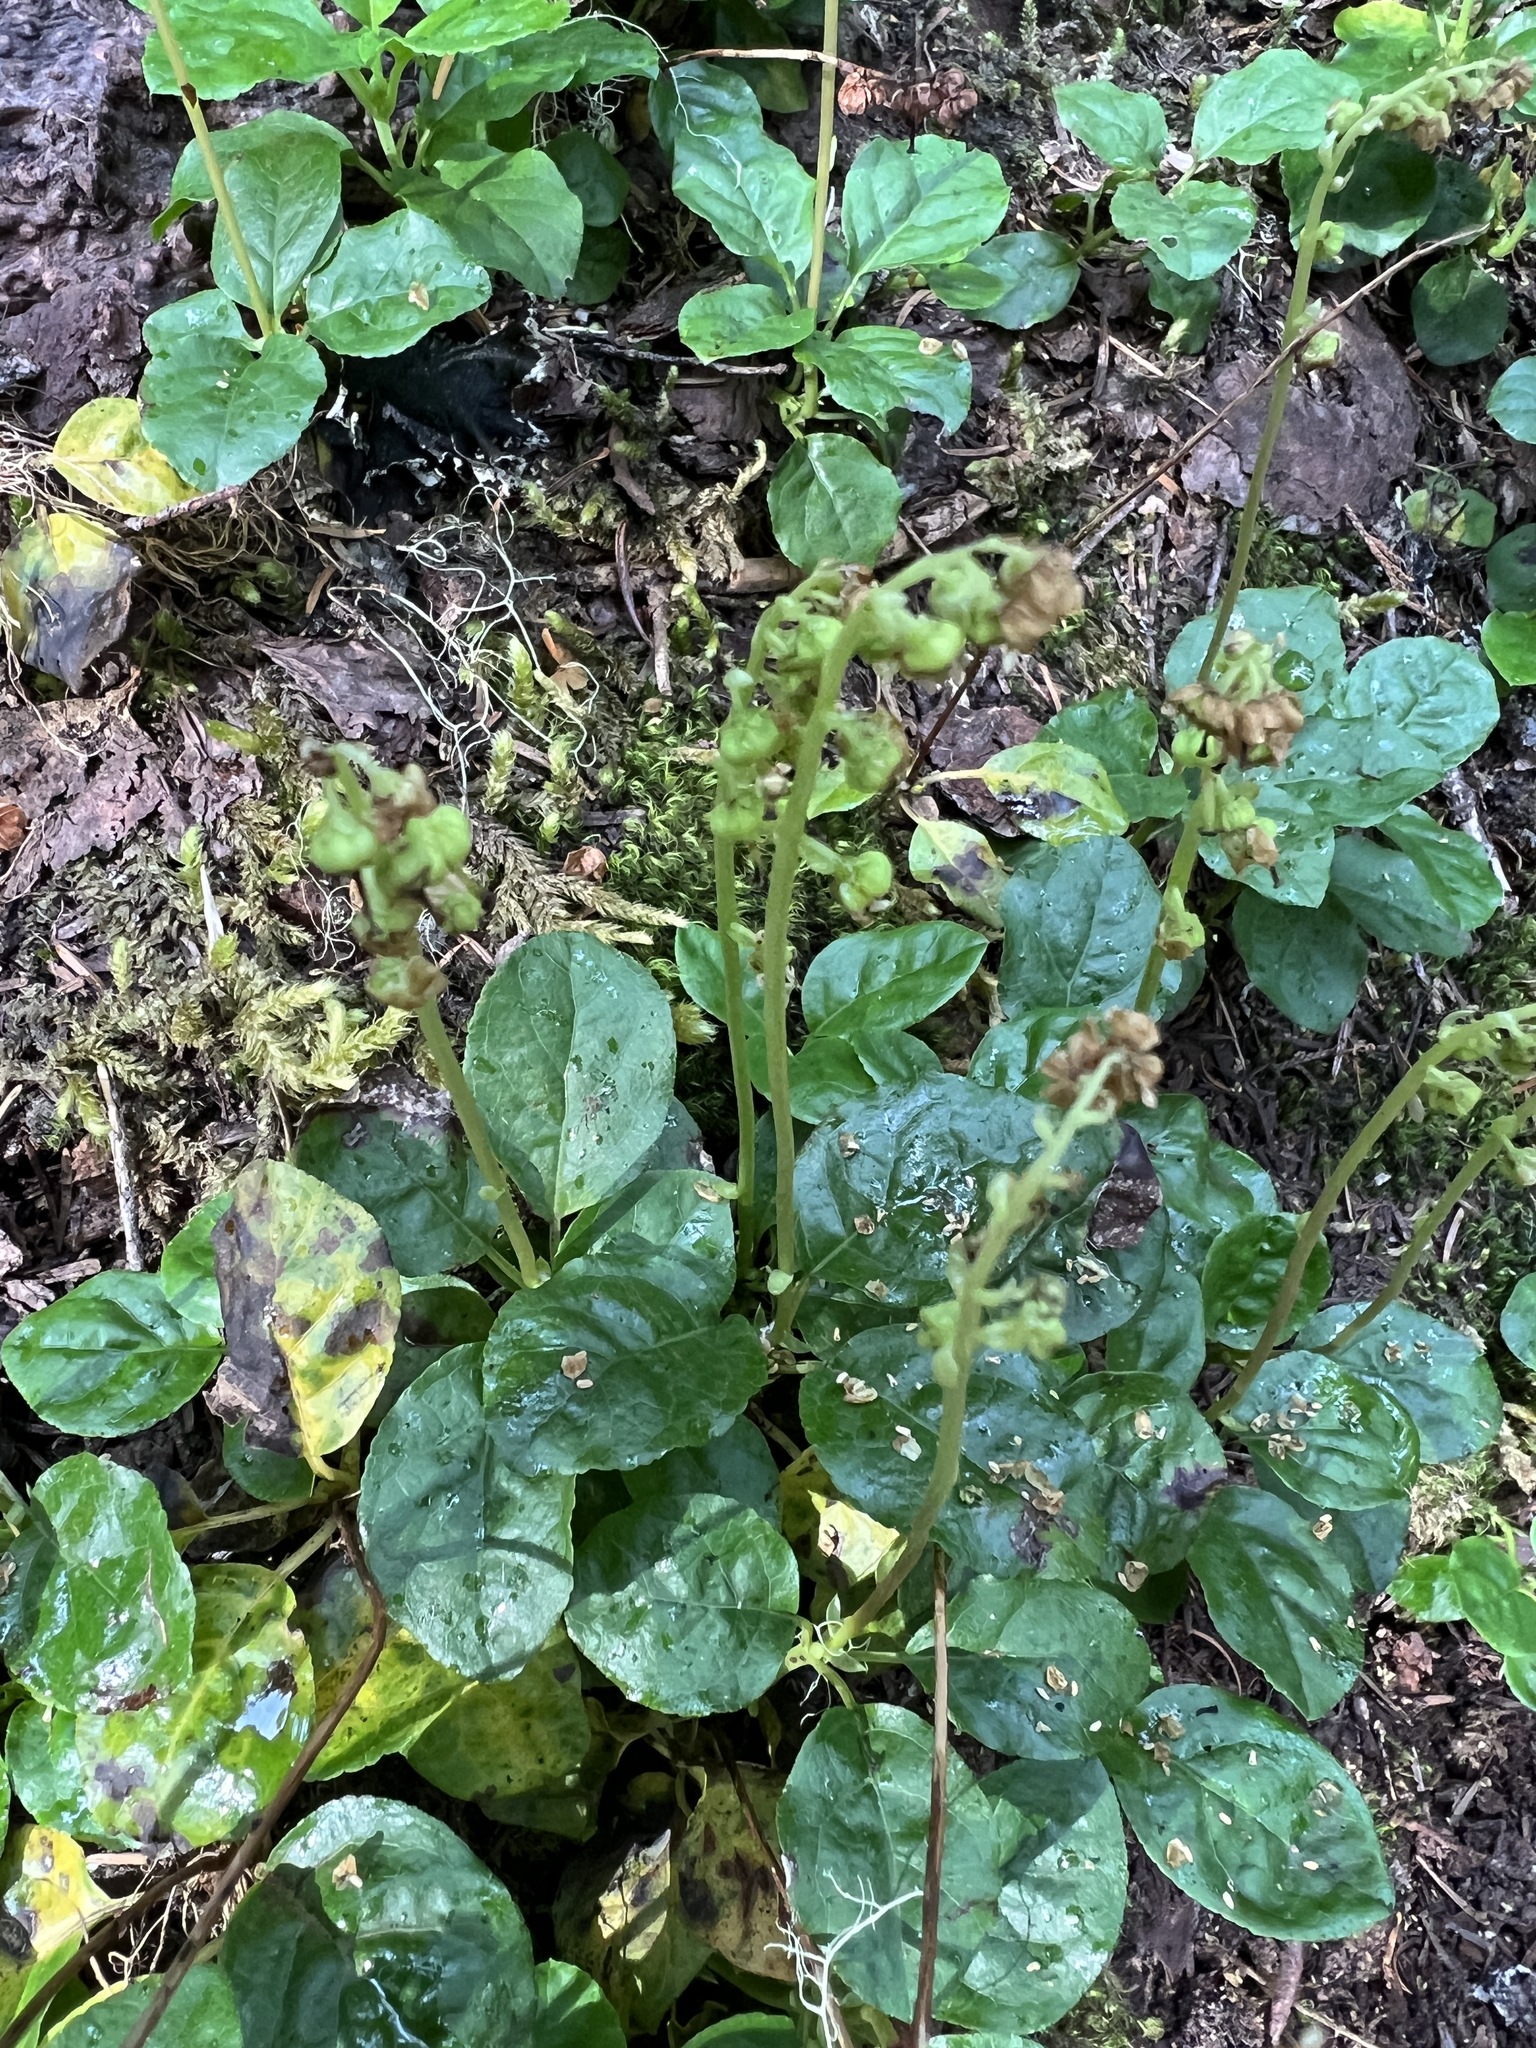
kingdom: Plantae
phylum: Tracheophyta
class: Magnoliopsida
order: Ericales
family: Ericaceae
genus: Orthilia
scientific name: Orthilia secunda
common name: One-sided orthilia
